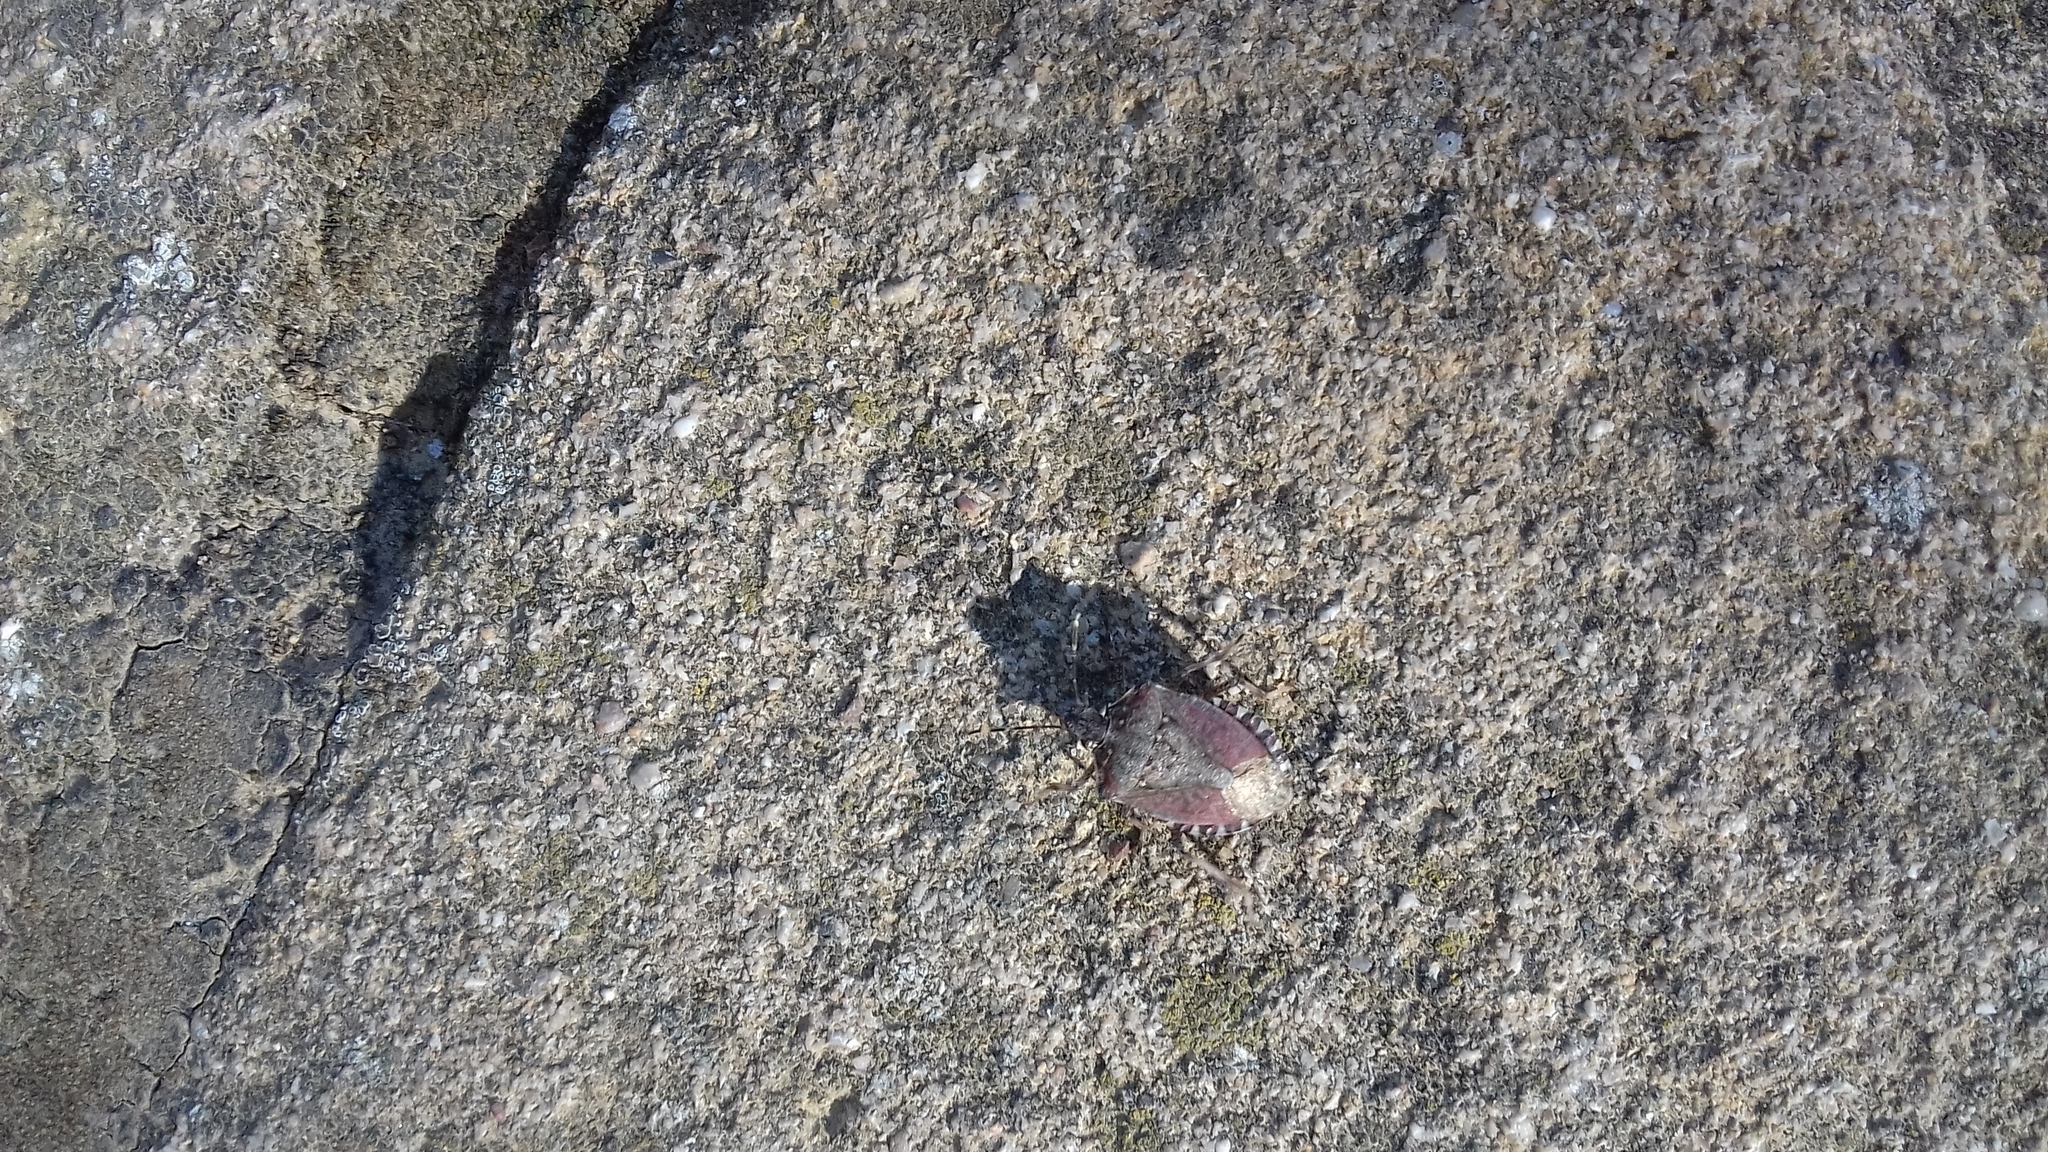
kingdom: Animalia
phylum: Arthropoda
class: Insecta
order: Hemiptera
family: Pentatomidae
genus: Halyomorpha
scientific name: Halyomorpha halys
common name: Brown marmorated stink bug
